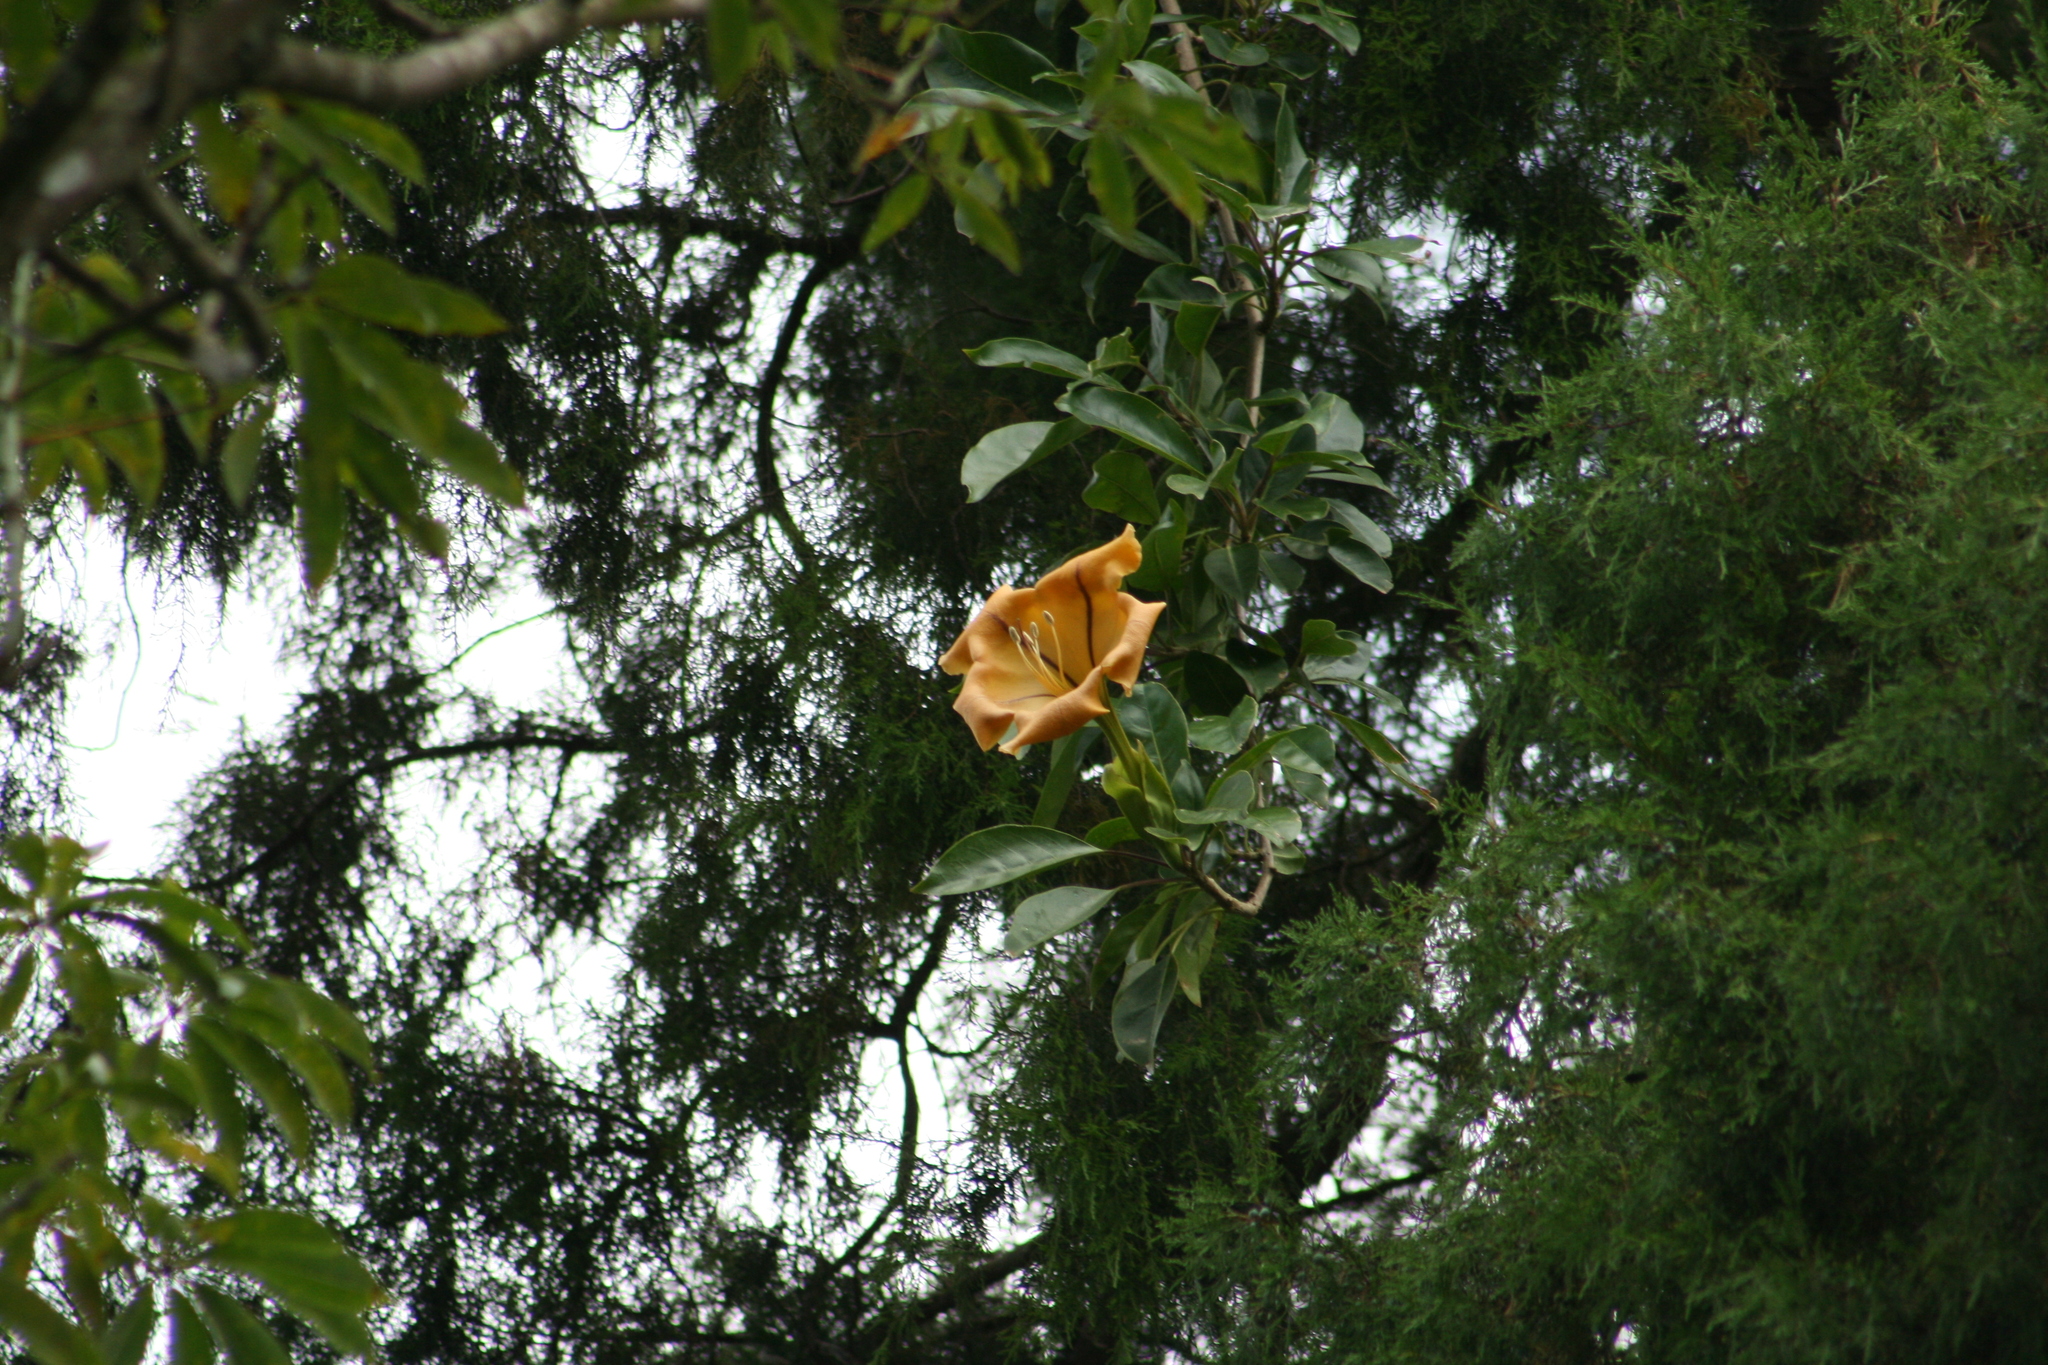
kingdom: Plantae
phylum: Tracheophyta
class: Magnoliopsida
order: Solanales
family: Solanaceae
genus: Solandra
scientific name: Solandra maxima
